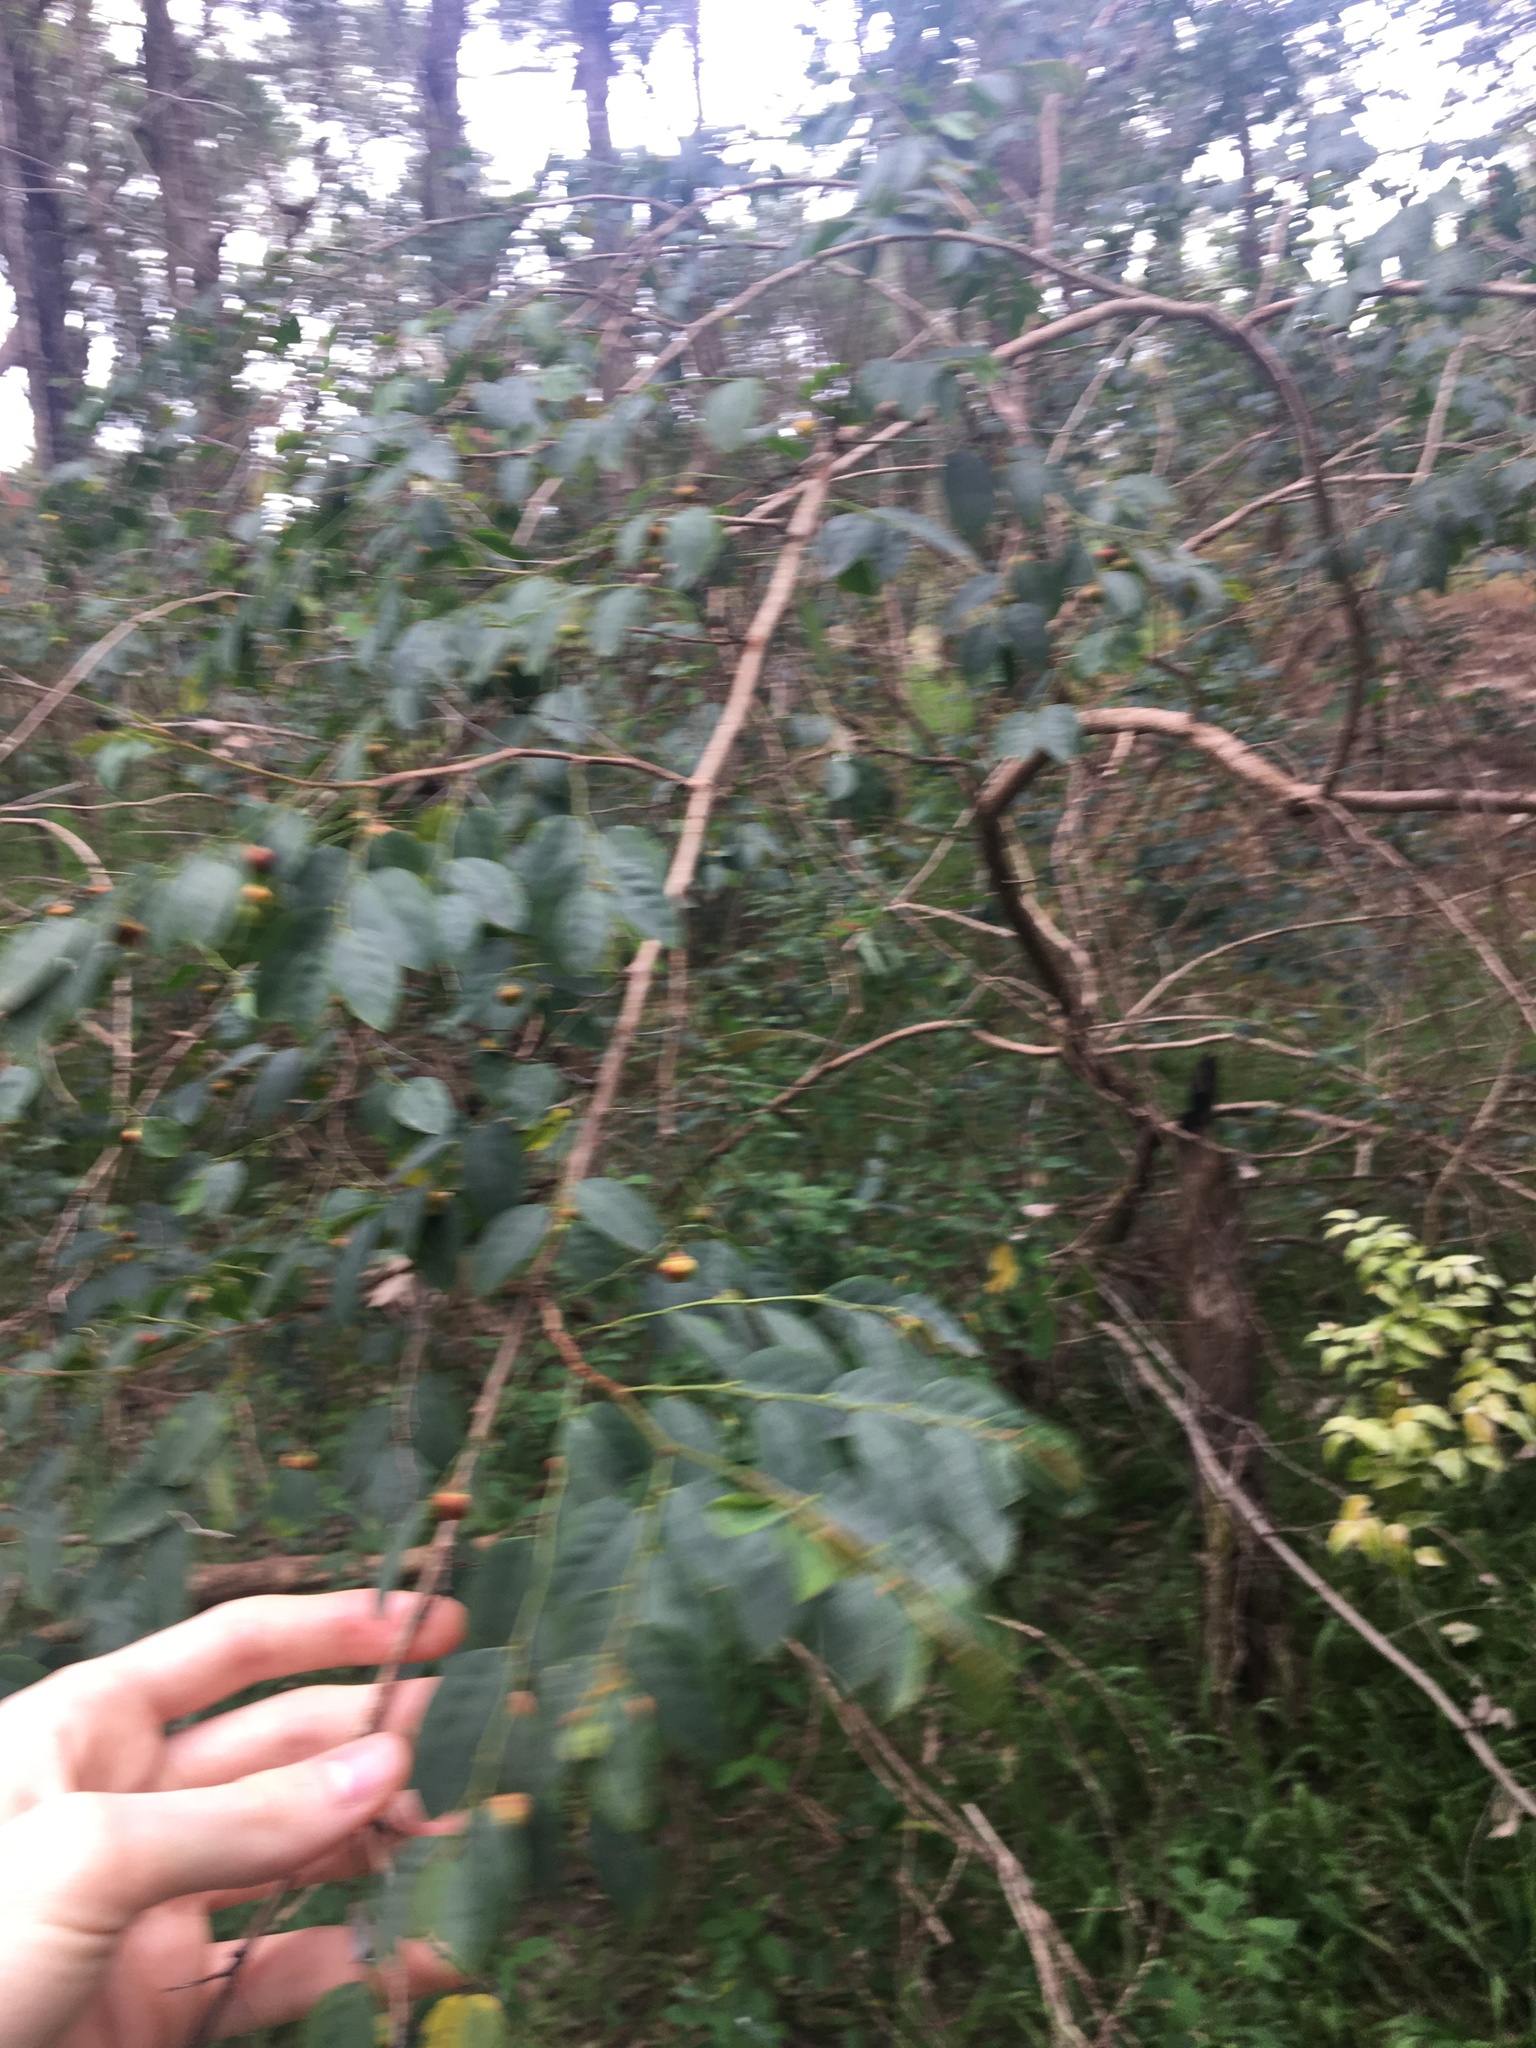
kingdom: Plantae
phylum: Tracheophyta
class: Magnoliopsida
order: Malpighiales
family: Phyllanthaceae
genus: Breynia
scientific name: Breynia oblongifolia
